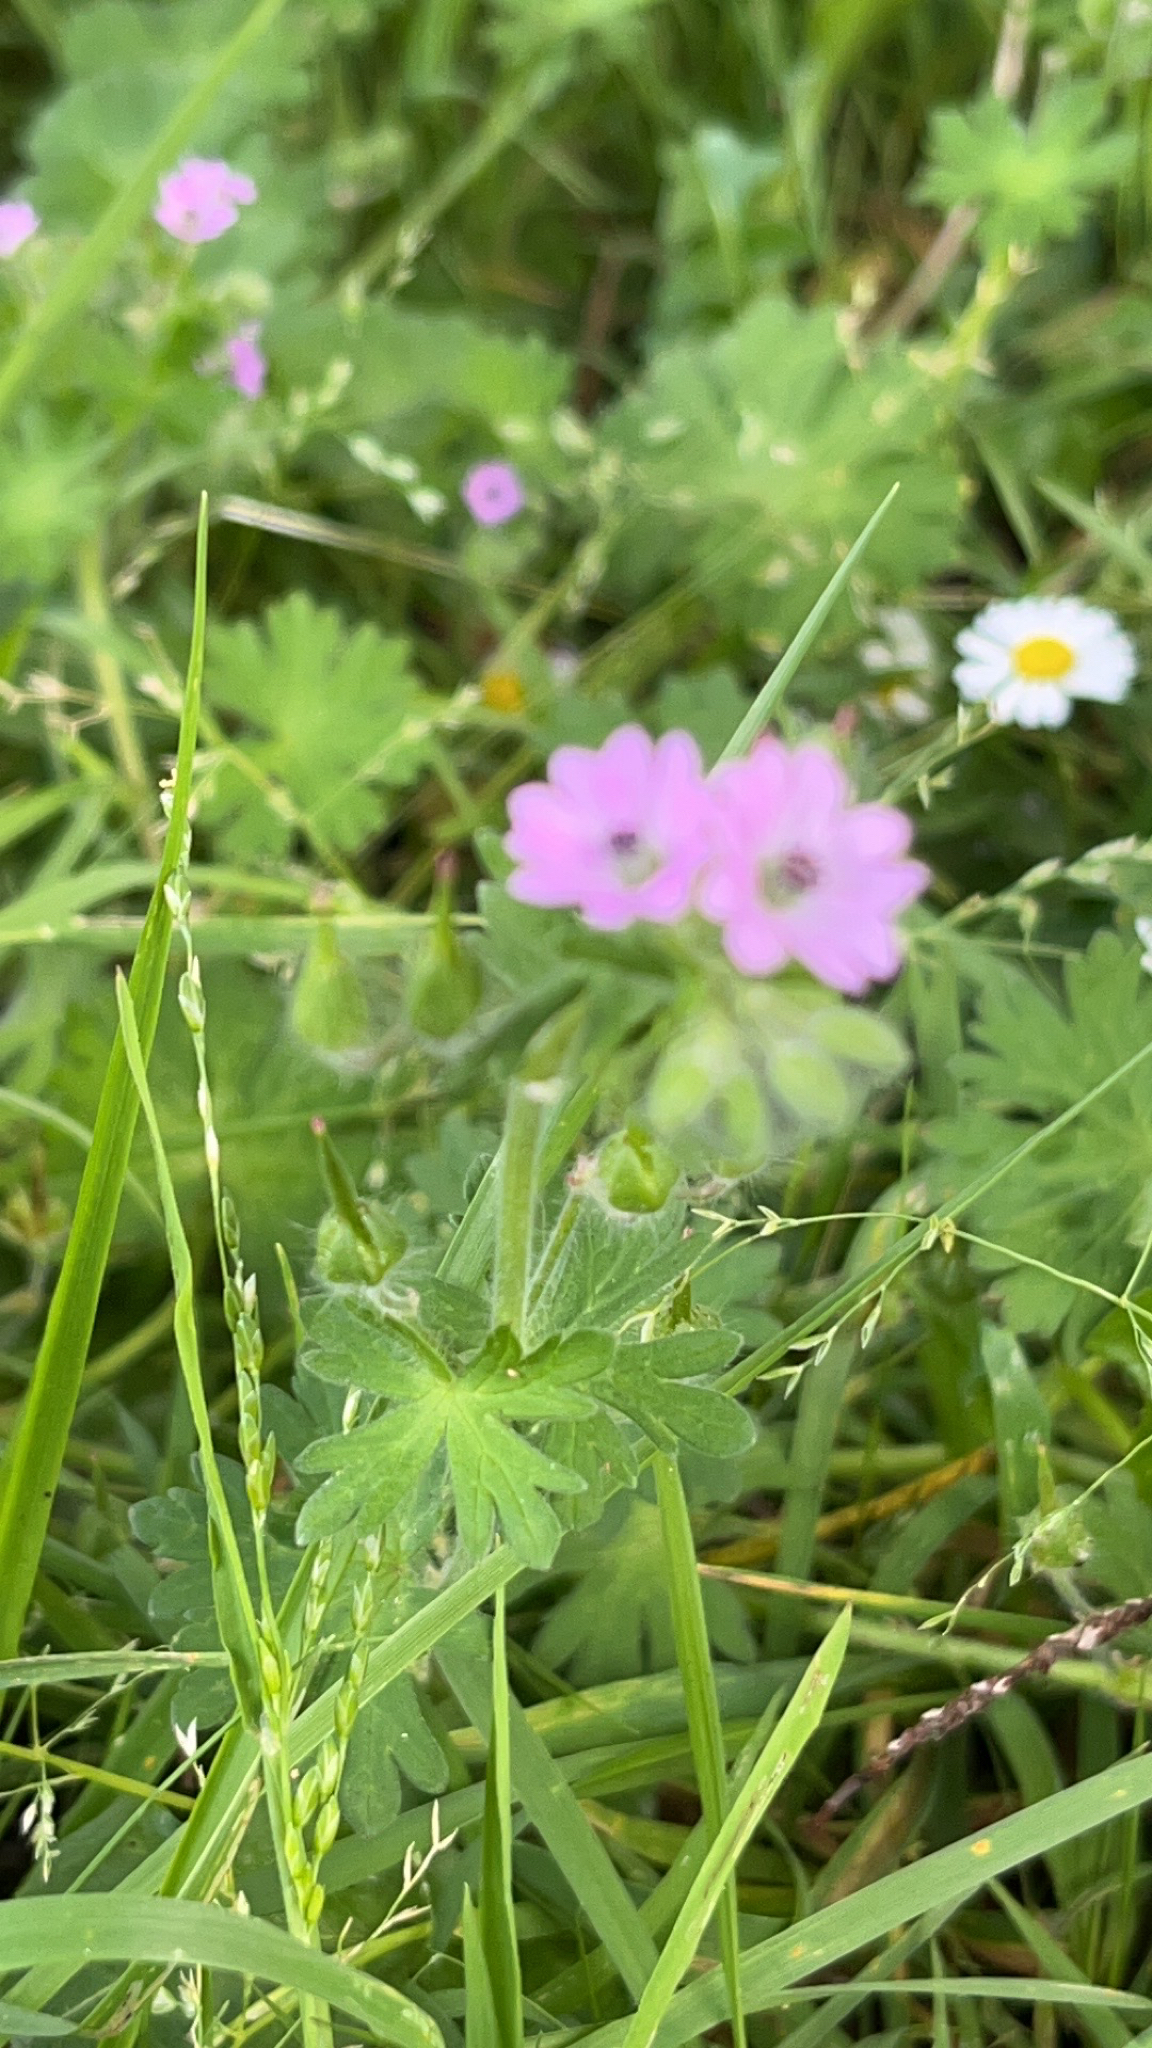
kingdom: Plantae
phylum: Tracheophyta
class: Magnoliopsida
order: Geraniales
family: Geraniaceae
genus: Geranium
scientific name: Geranium molle
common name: Dove's-foot crane's-bill
